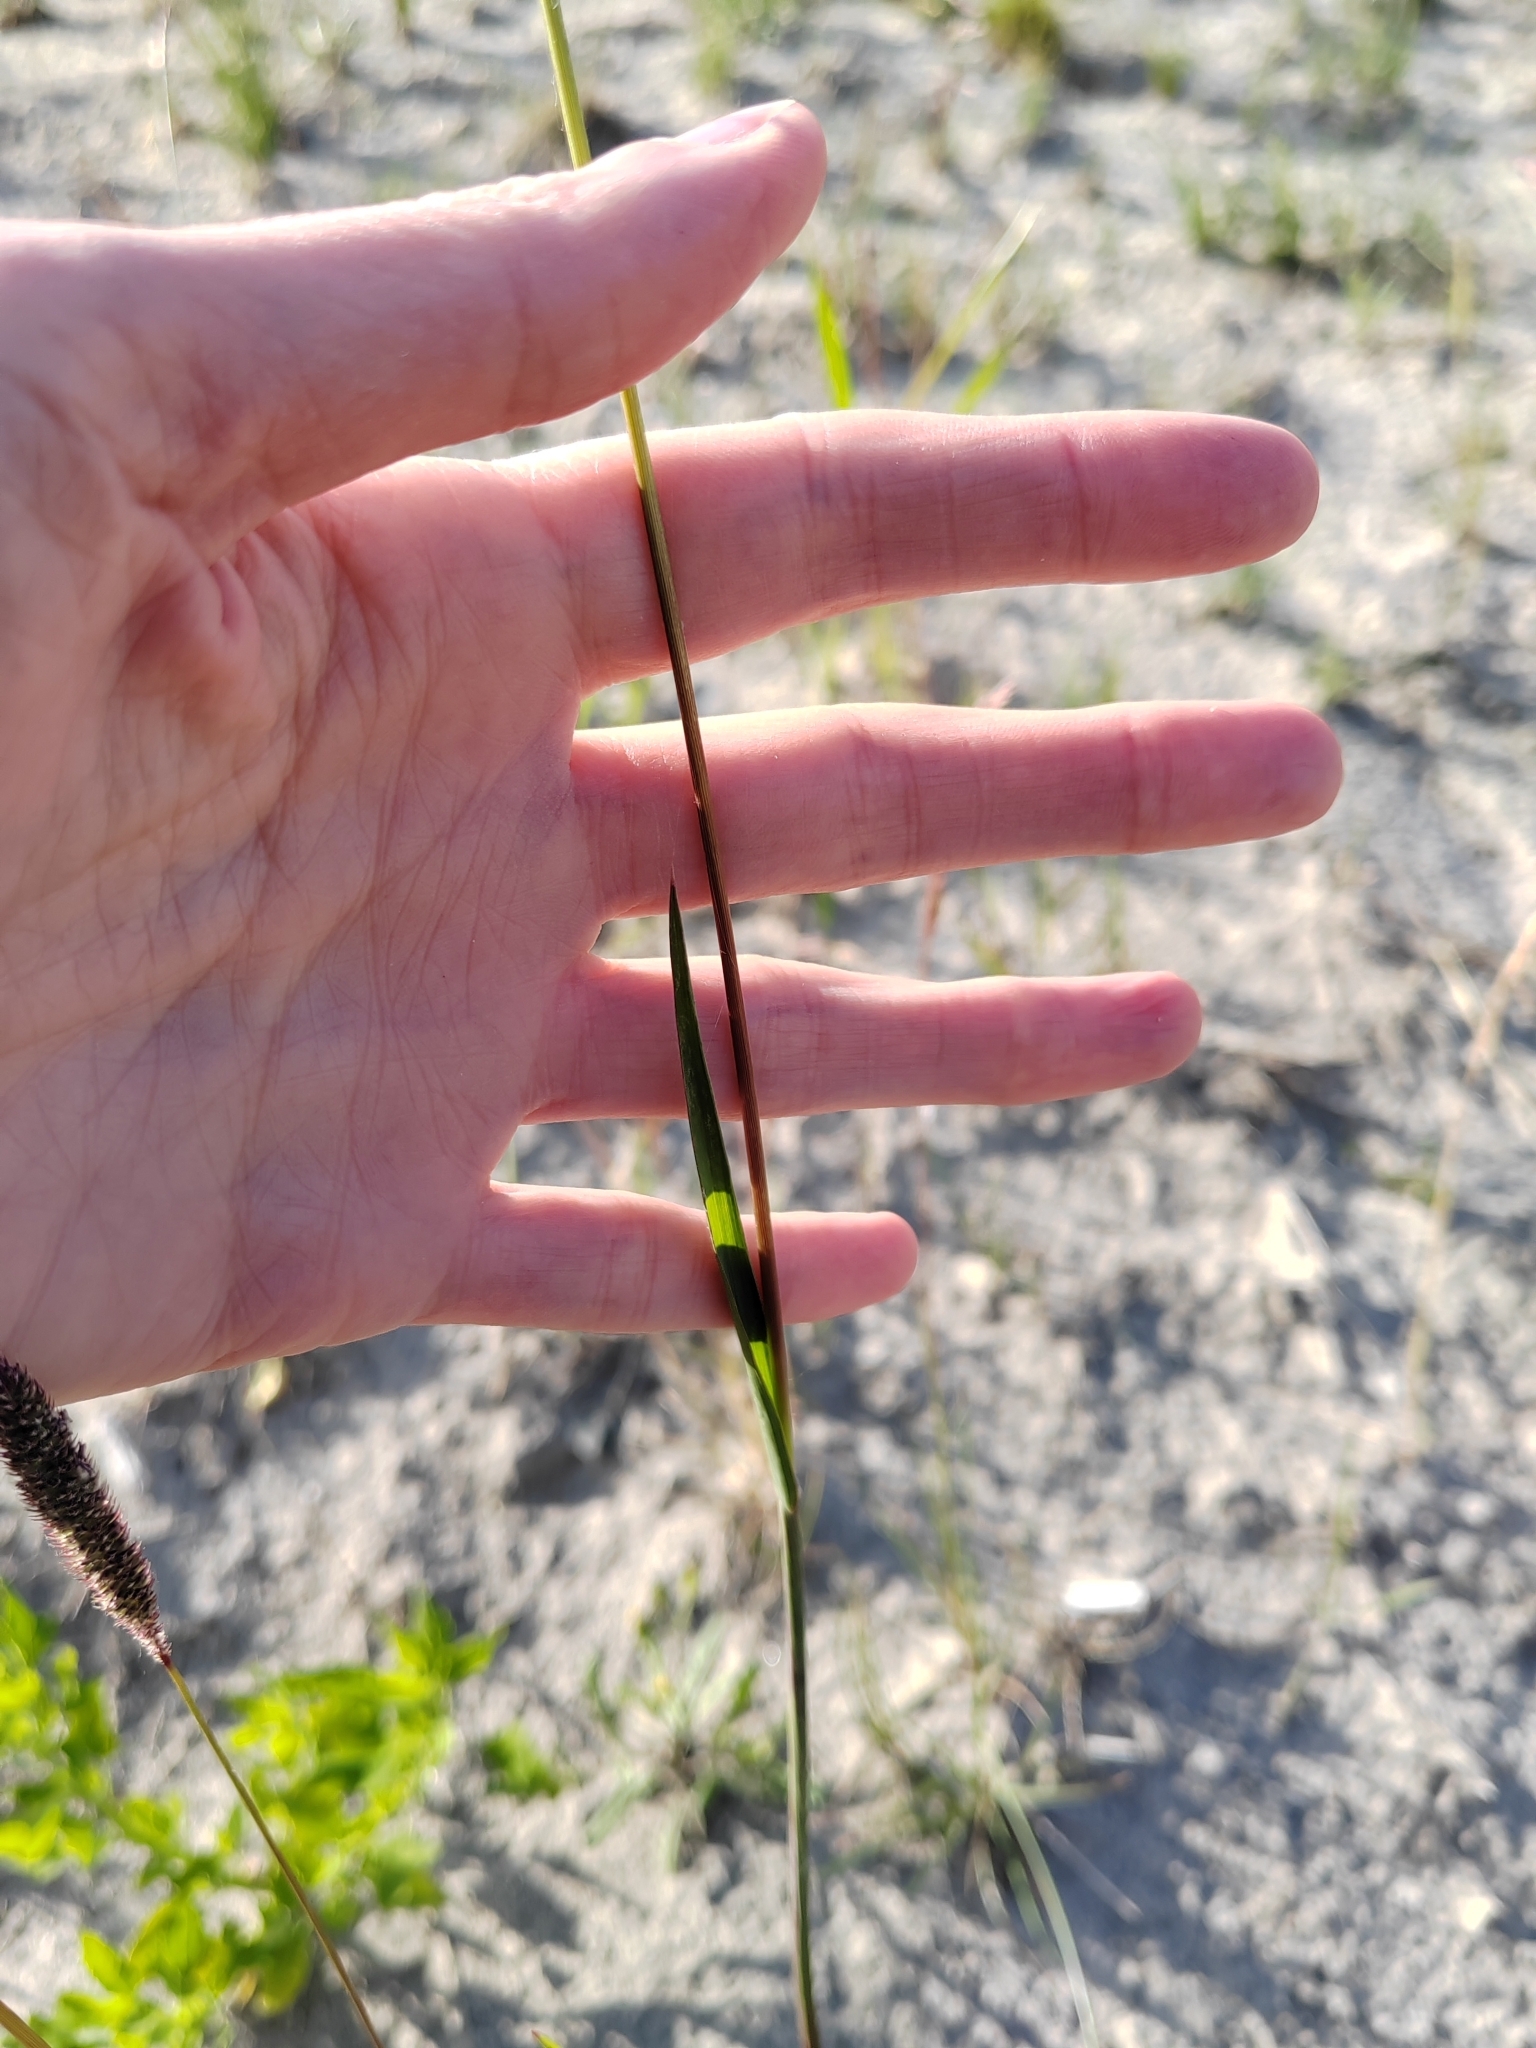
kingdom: Plantae
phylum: Tracheophyta
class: Liliopsida
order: Poales
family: Poaceae
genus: Phleum
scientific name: Phleum pratense
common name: Timothy grass
